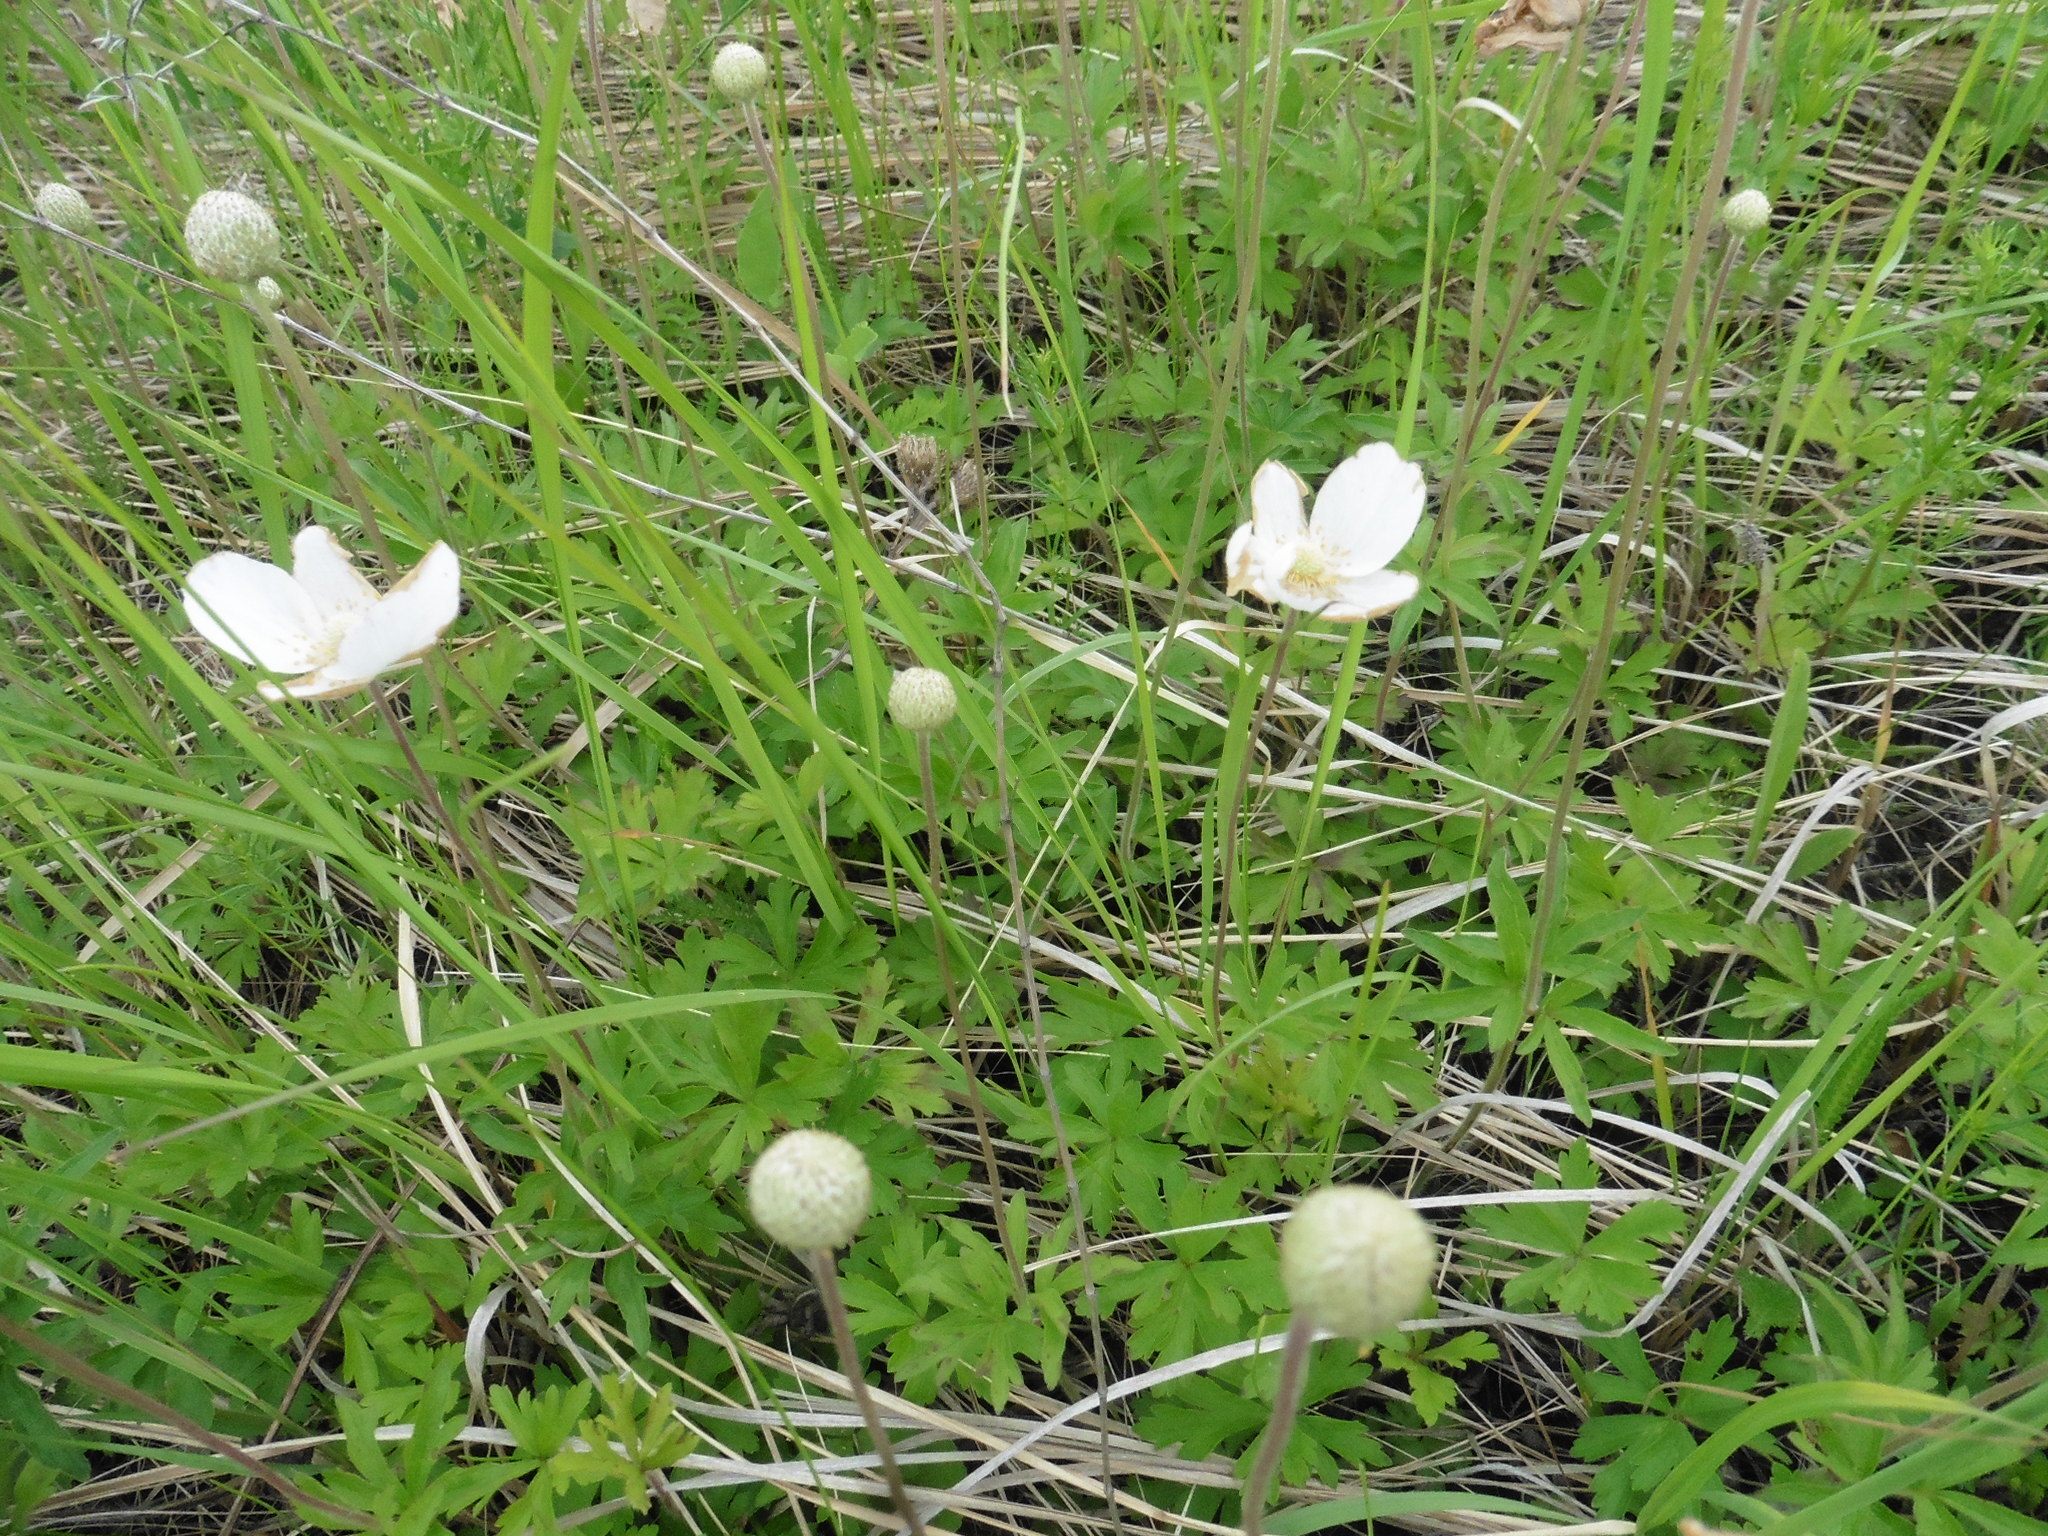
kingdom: Plantae
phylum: Tracheophyta
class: Magnoliopsida
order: Ranunculales
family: Ranunculaceae
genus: Anemone
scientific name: Anemone sylvestris
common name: Snowdrop anemone
